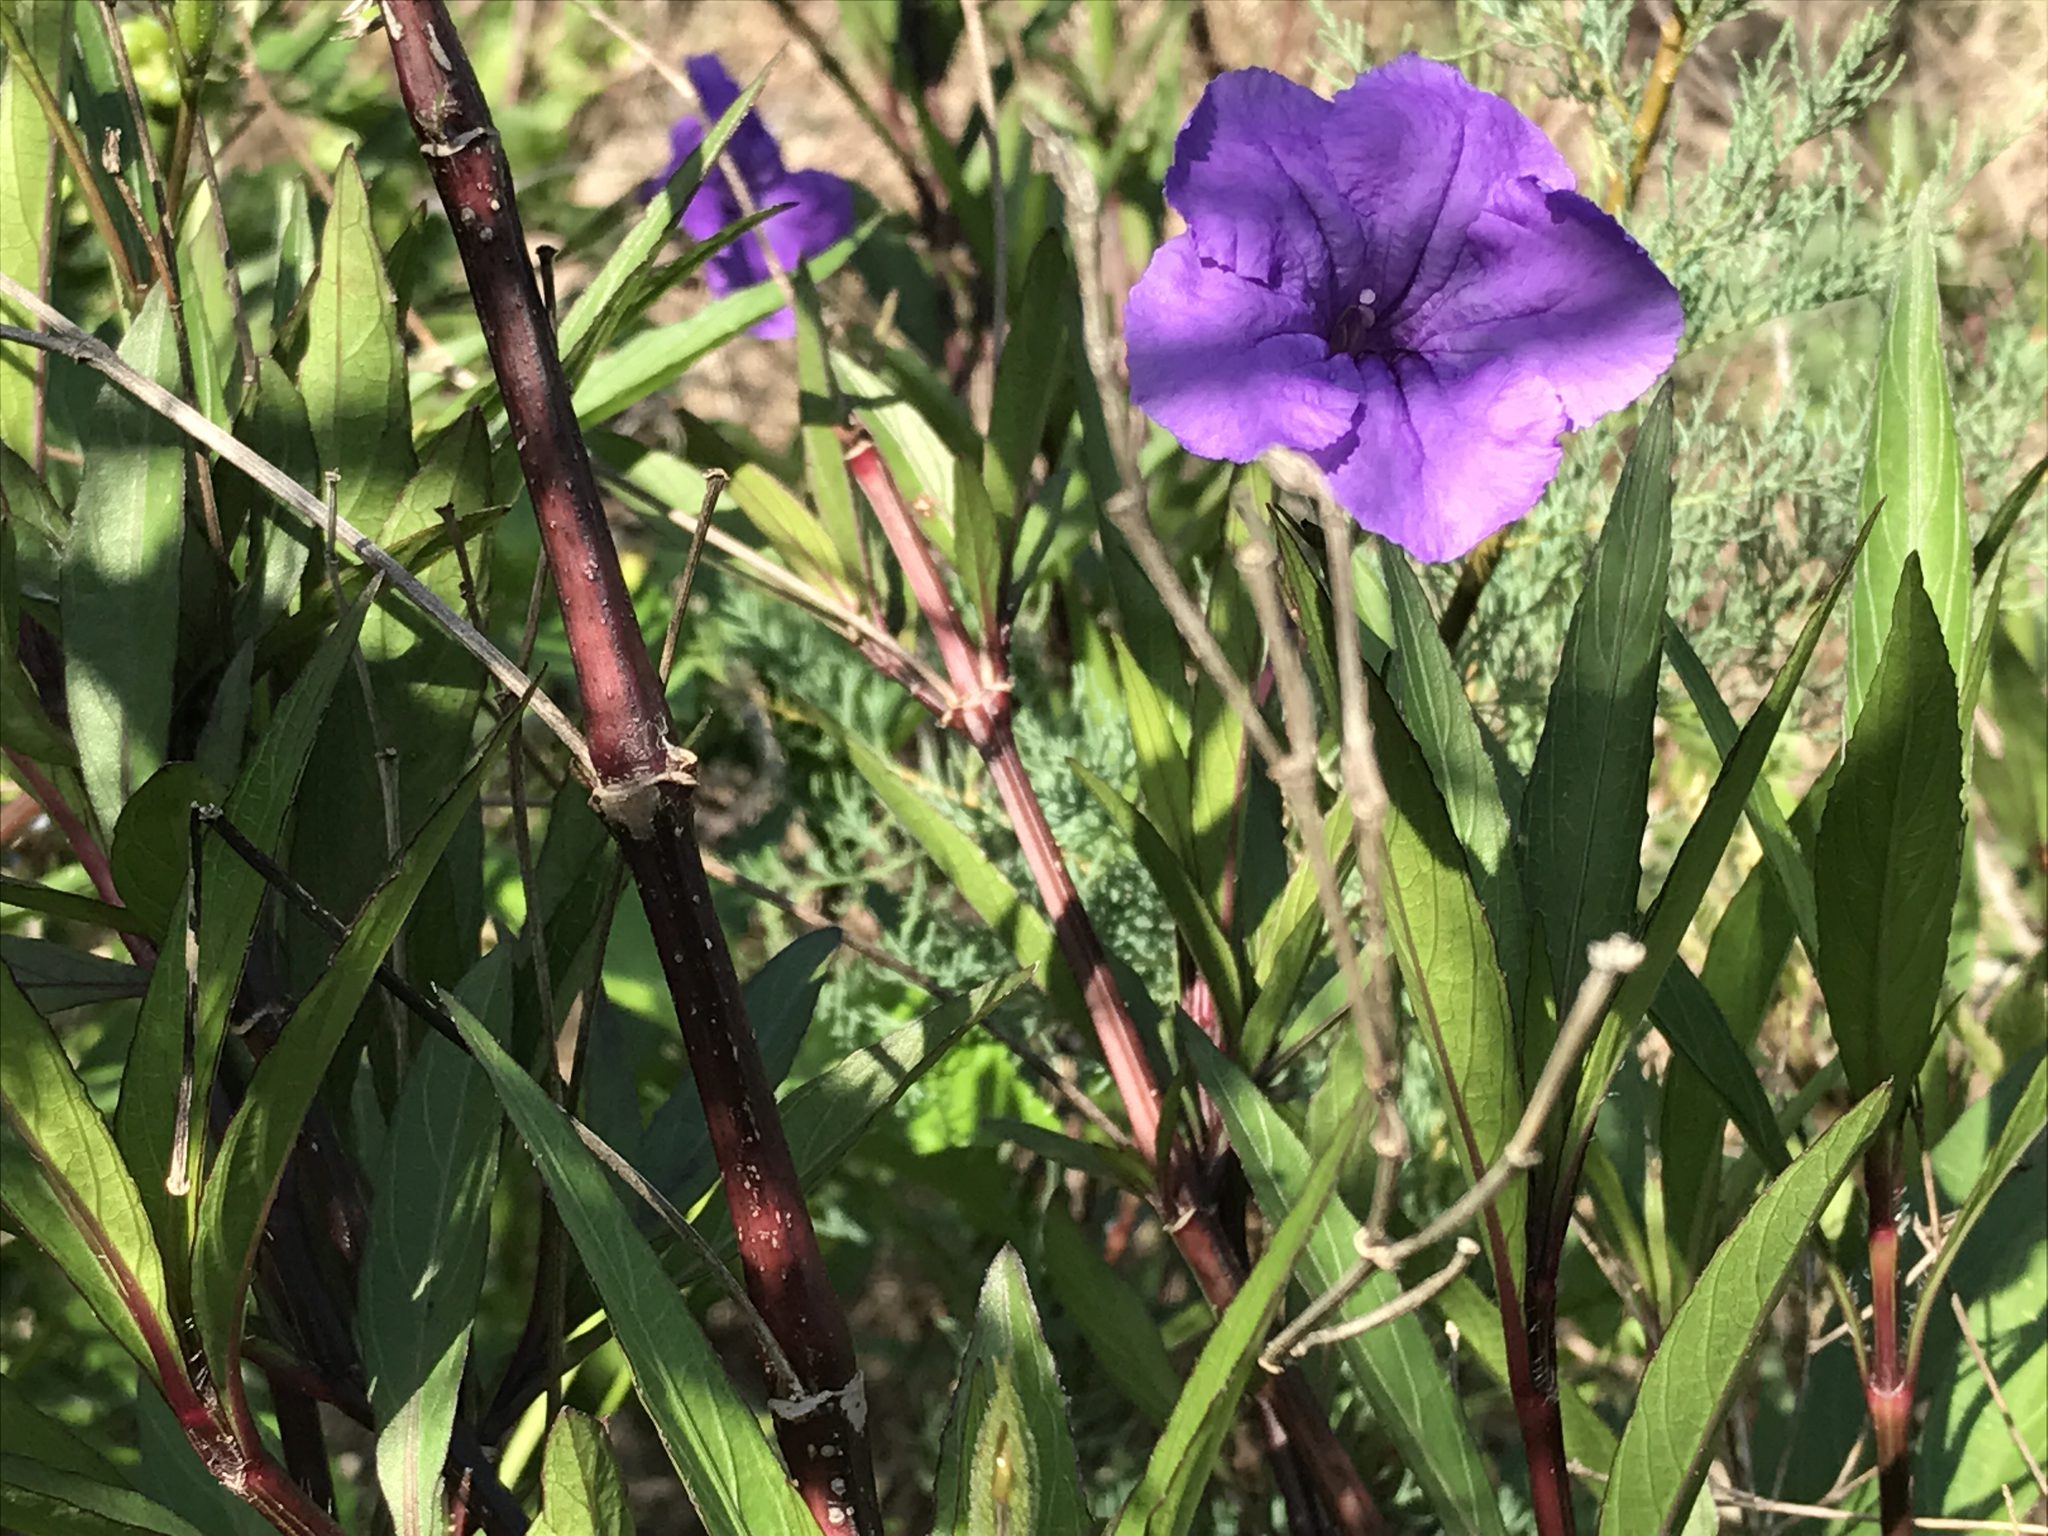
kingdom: Plantae
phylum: Tracheophyta
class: Magnoliopsida
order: Lamiales
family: Acanthaceae
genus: Ruellia
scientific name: Ruellia simplex
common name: Softseed wild petunia
